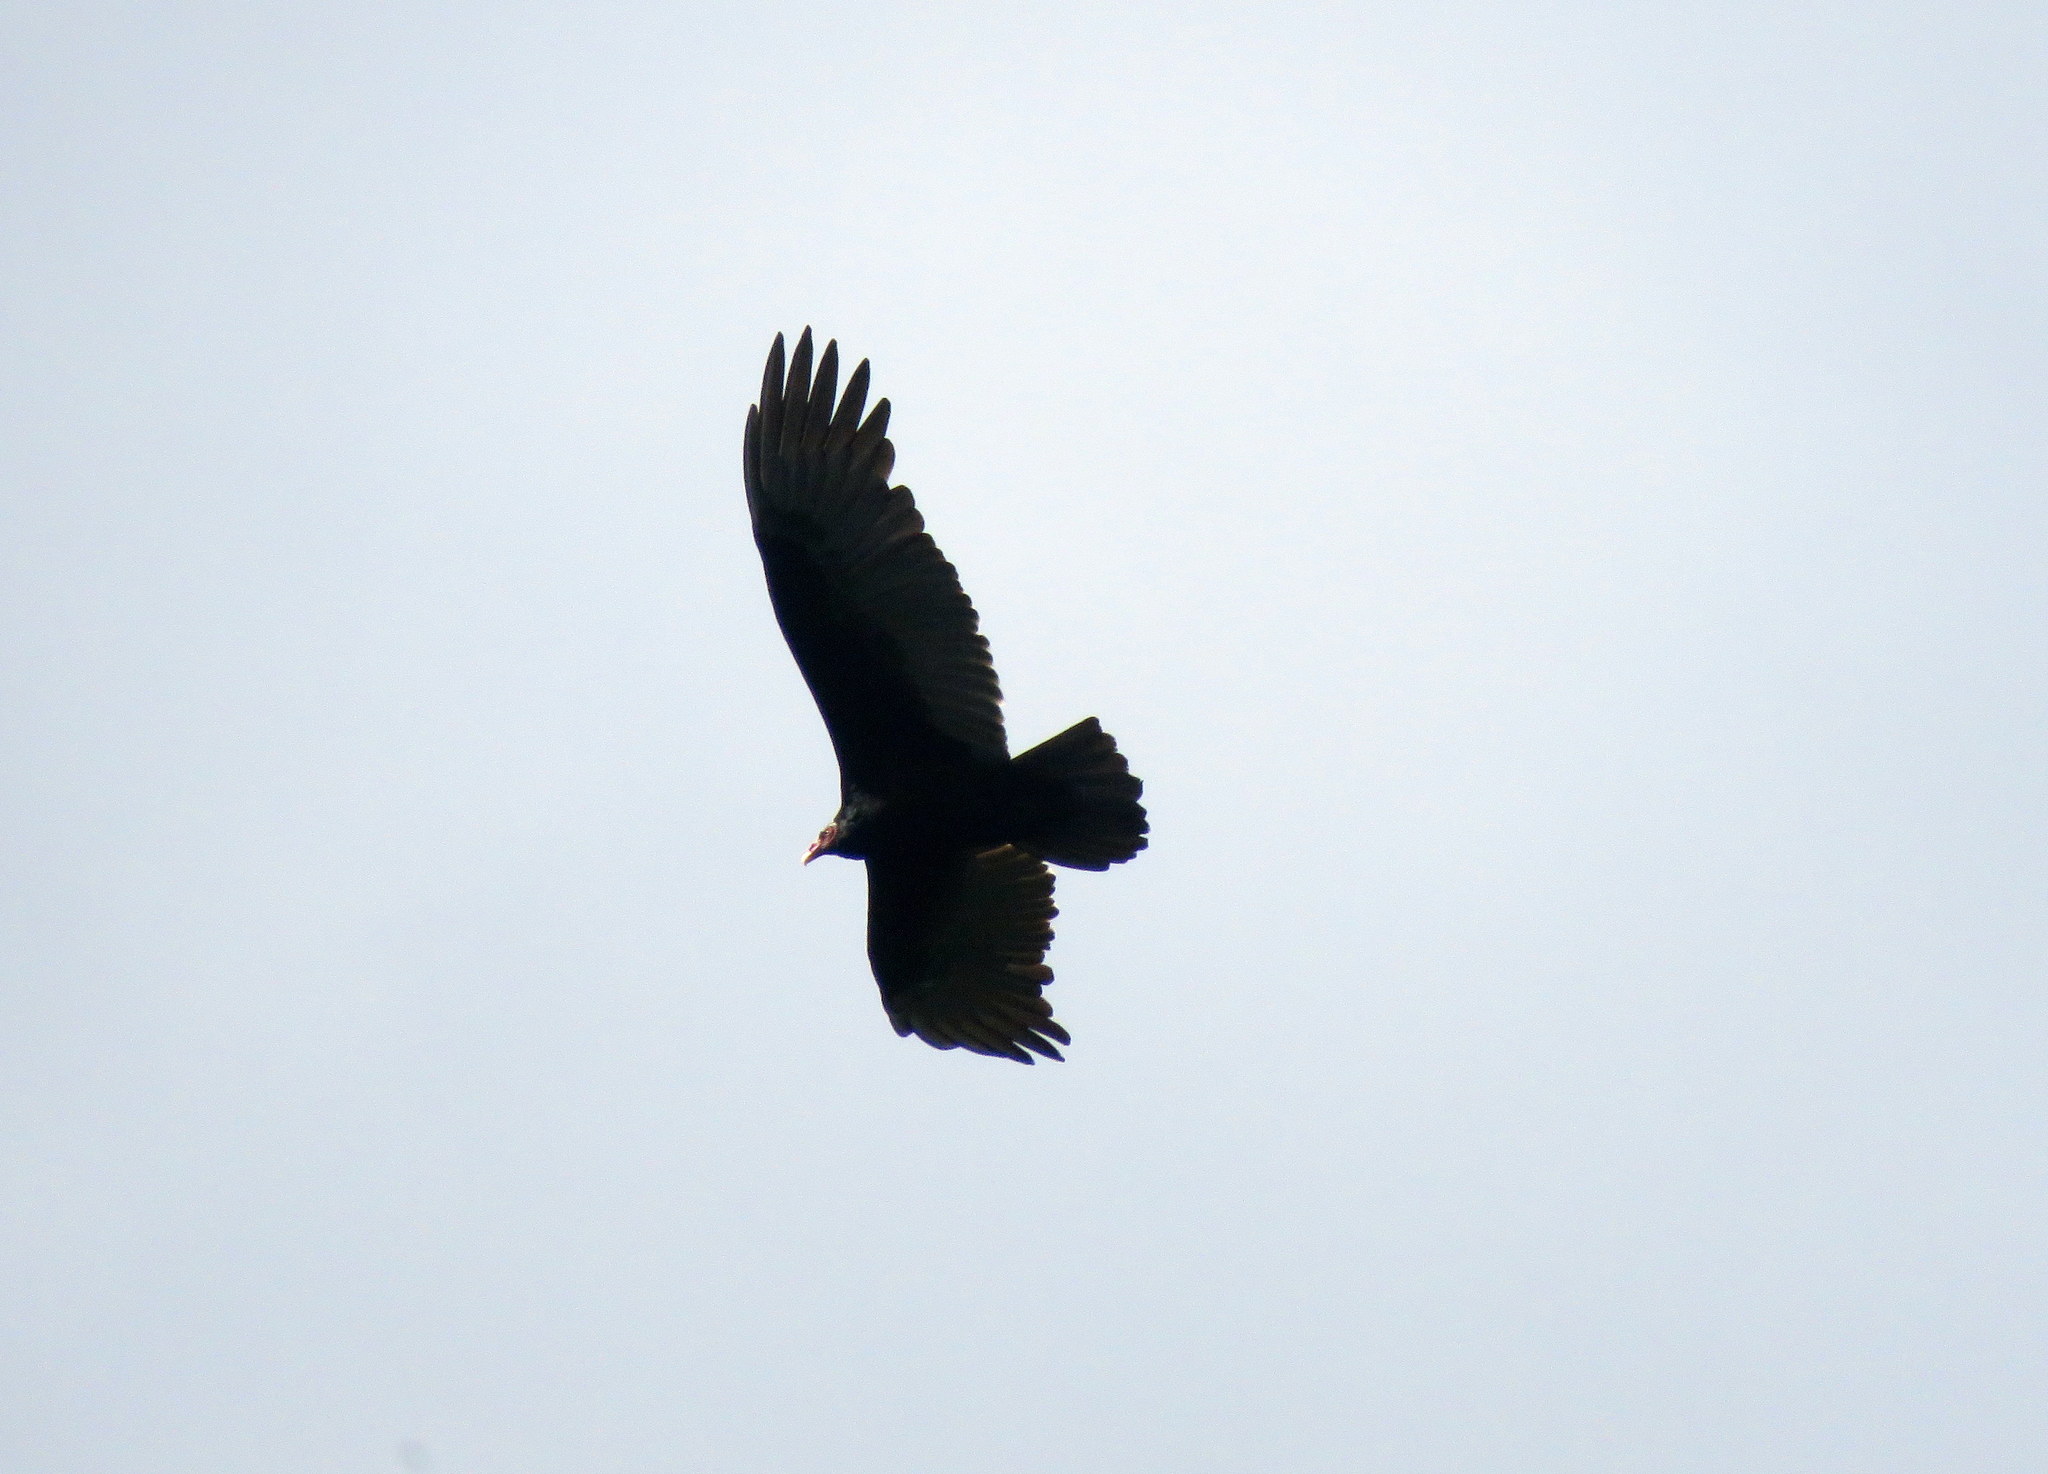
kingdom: Animalia
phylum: Chordata
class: Aves
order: Accipitriformes
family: Cathartidae
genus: Cathartes
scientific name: Cathartes aura
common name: Turkey vulture
